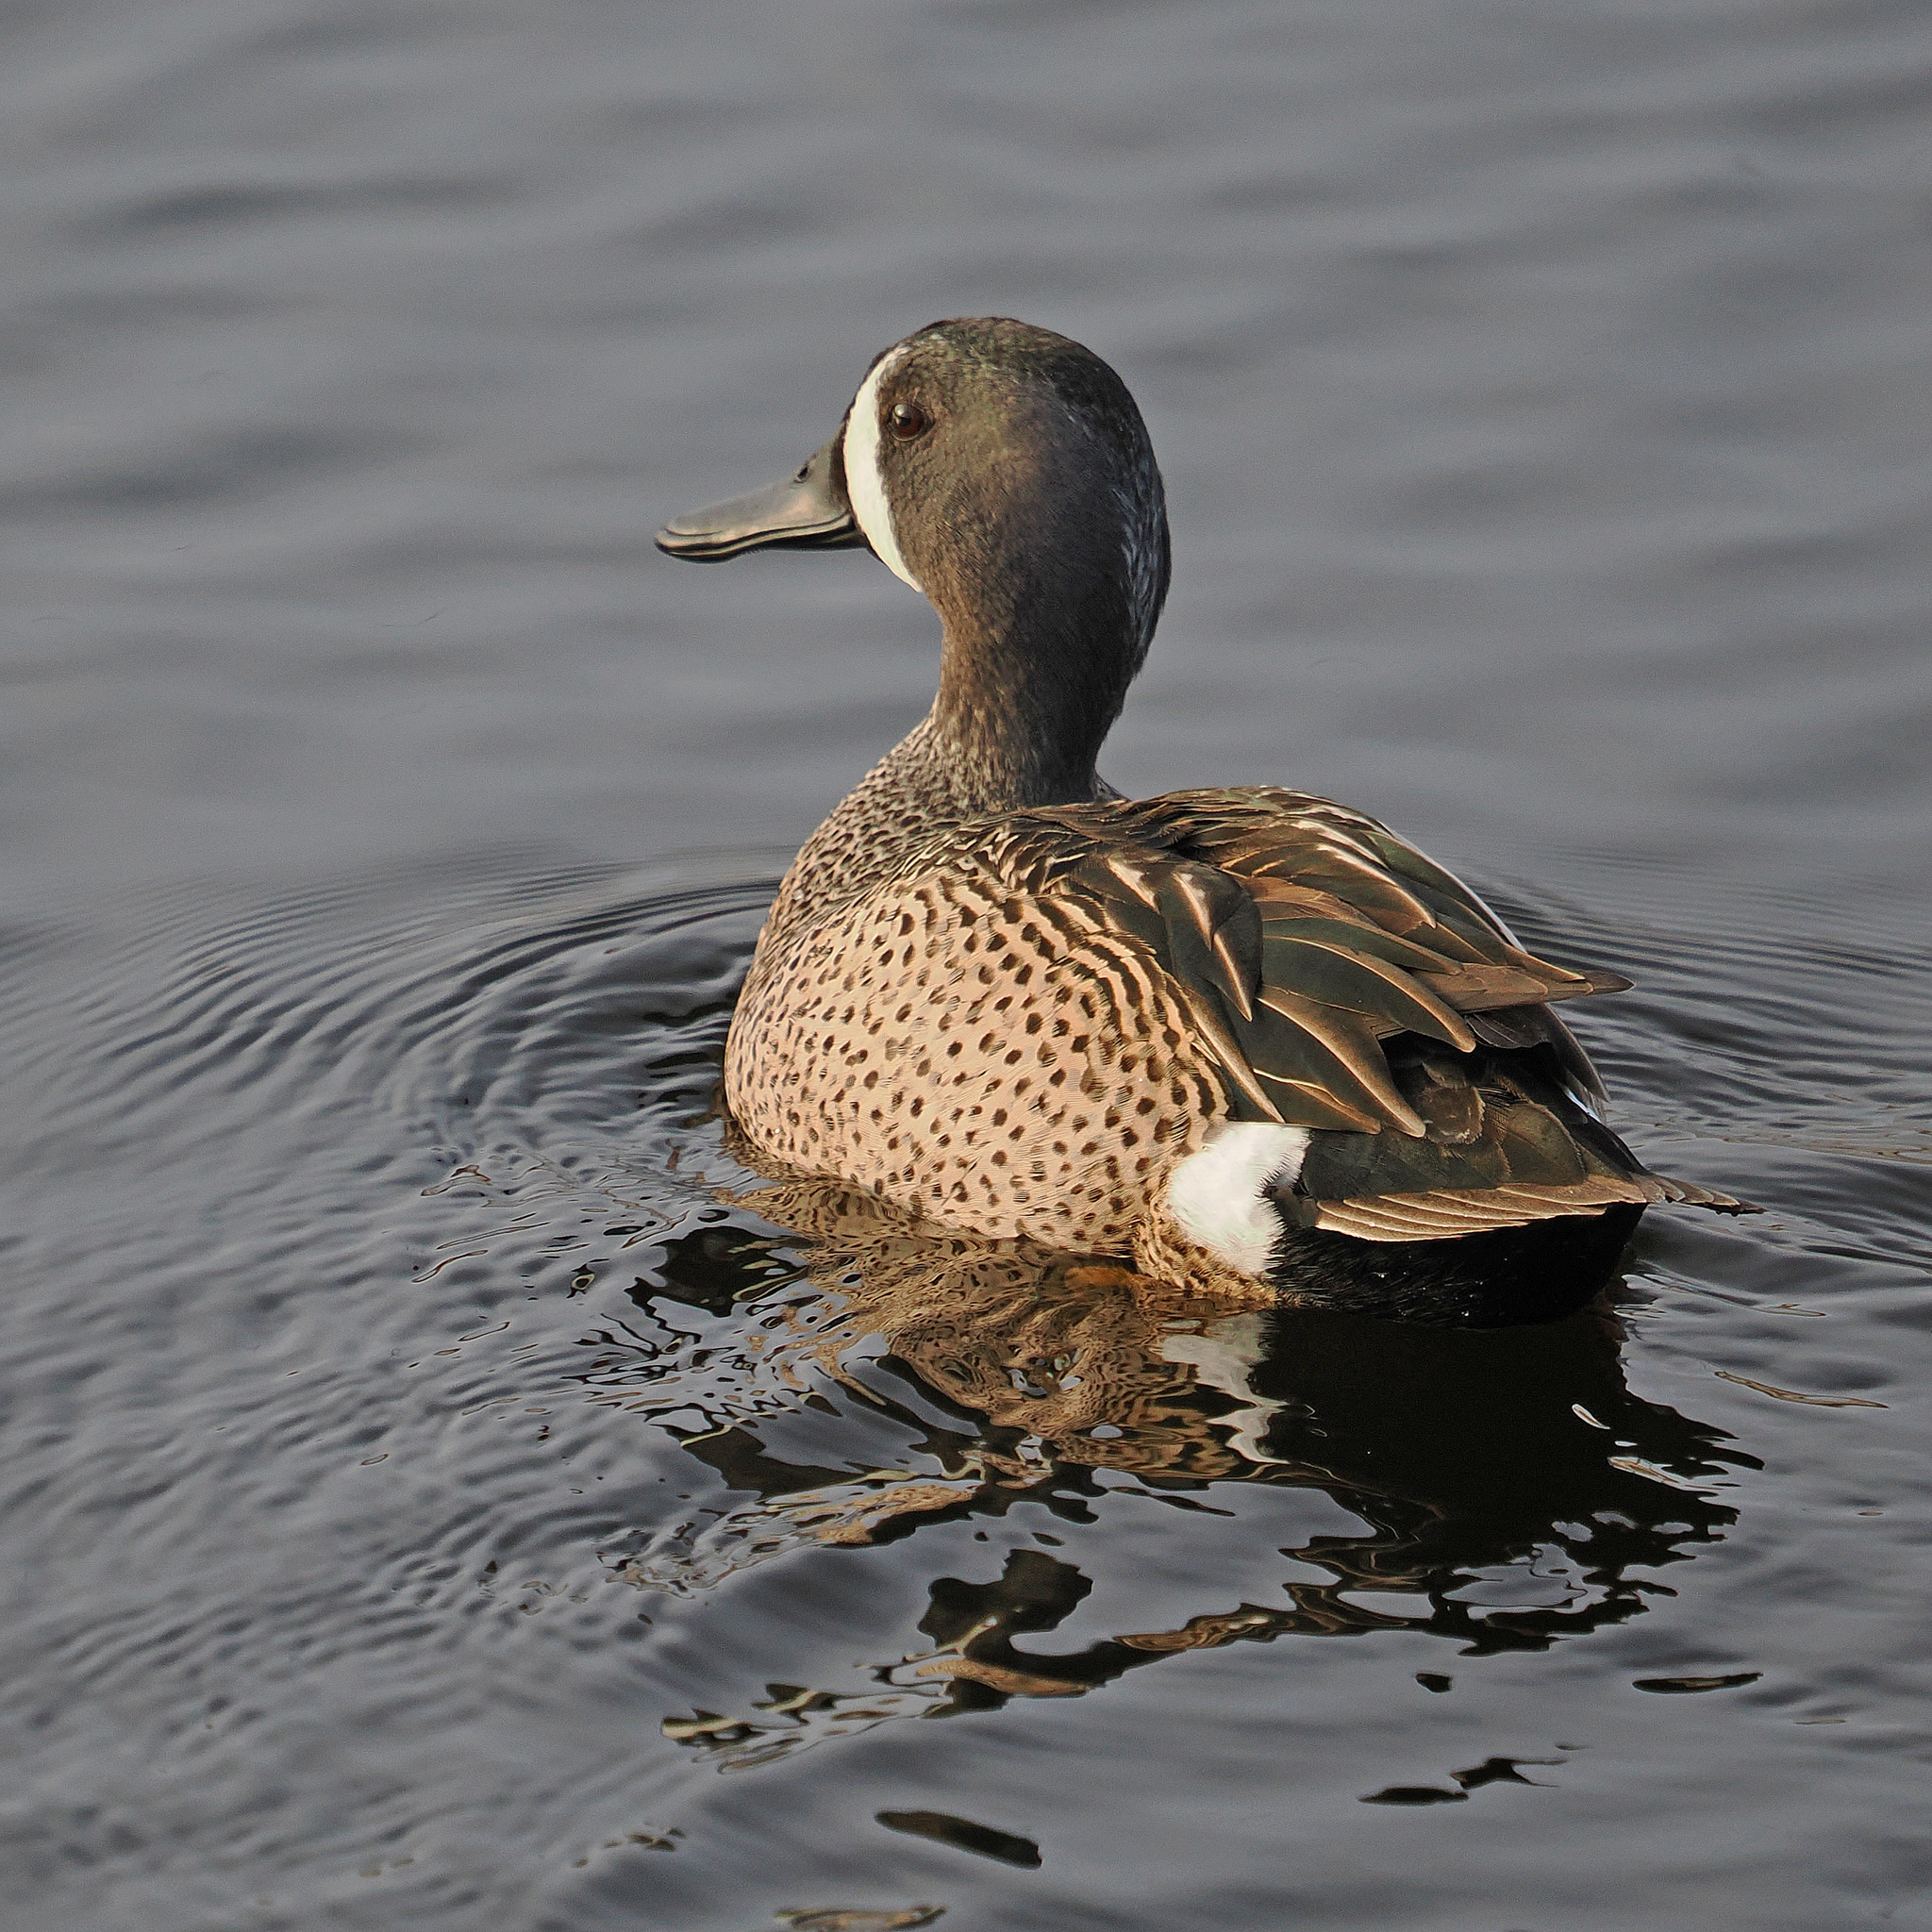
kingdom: Animalia
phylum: Chordata
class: Aves
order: Anseriformes
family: Anatidae
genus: Spatula
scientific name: Spatula discors
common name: Blue-winged teal
